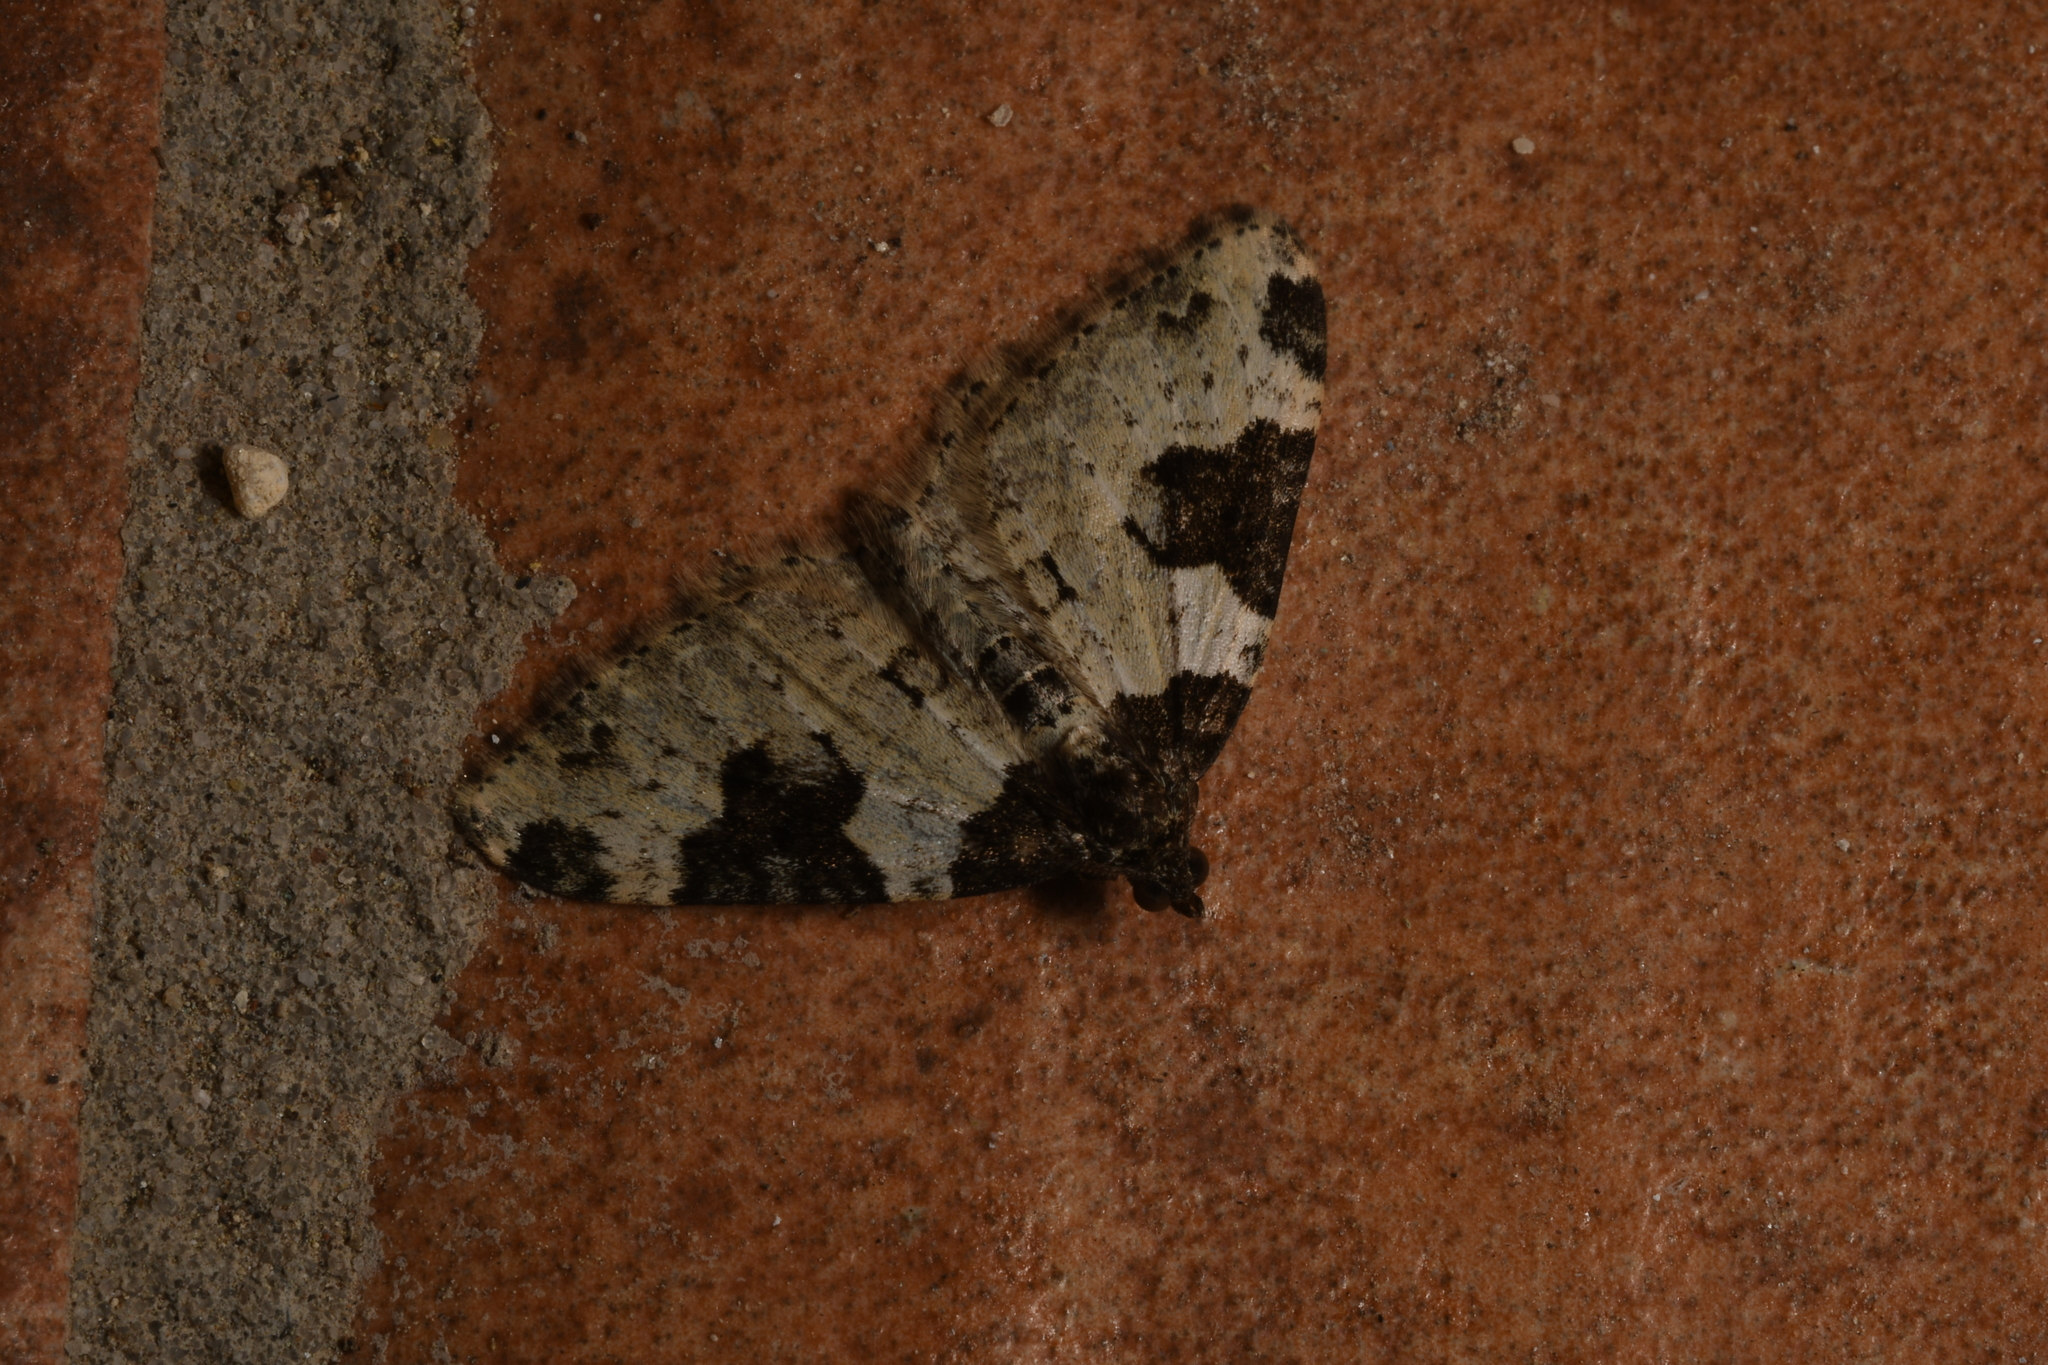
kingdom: Animalia
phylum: Arthropoda
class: Insecta
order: Lepidoptera
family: Geometridae
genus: Xanthorhoe
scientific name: Xanthorhoe fluctuata
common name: Garden carpet
